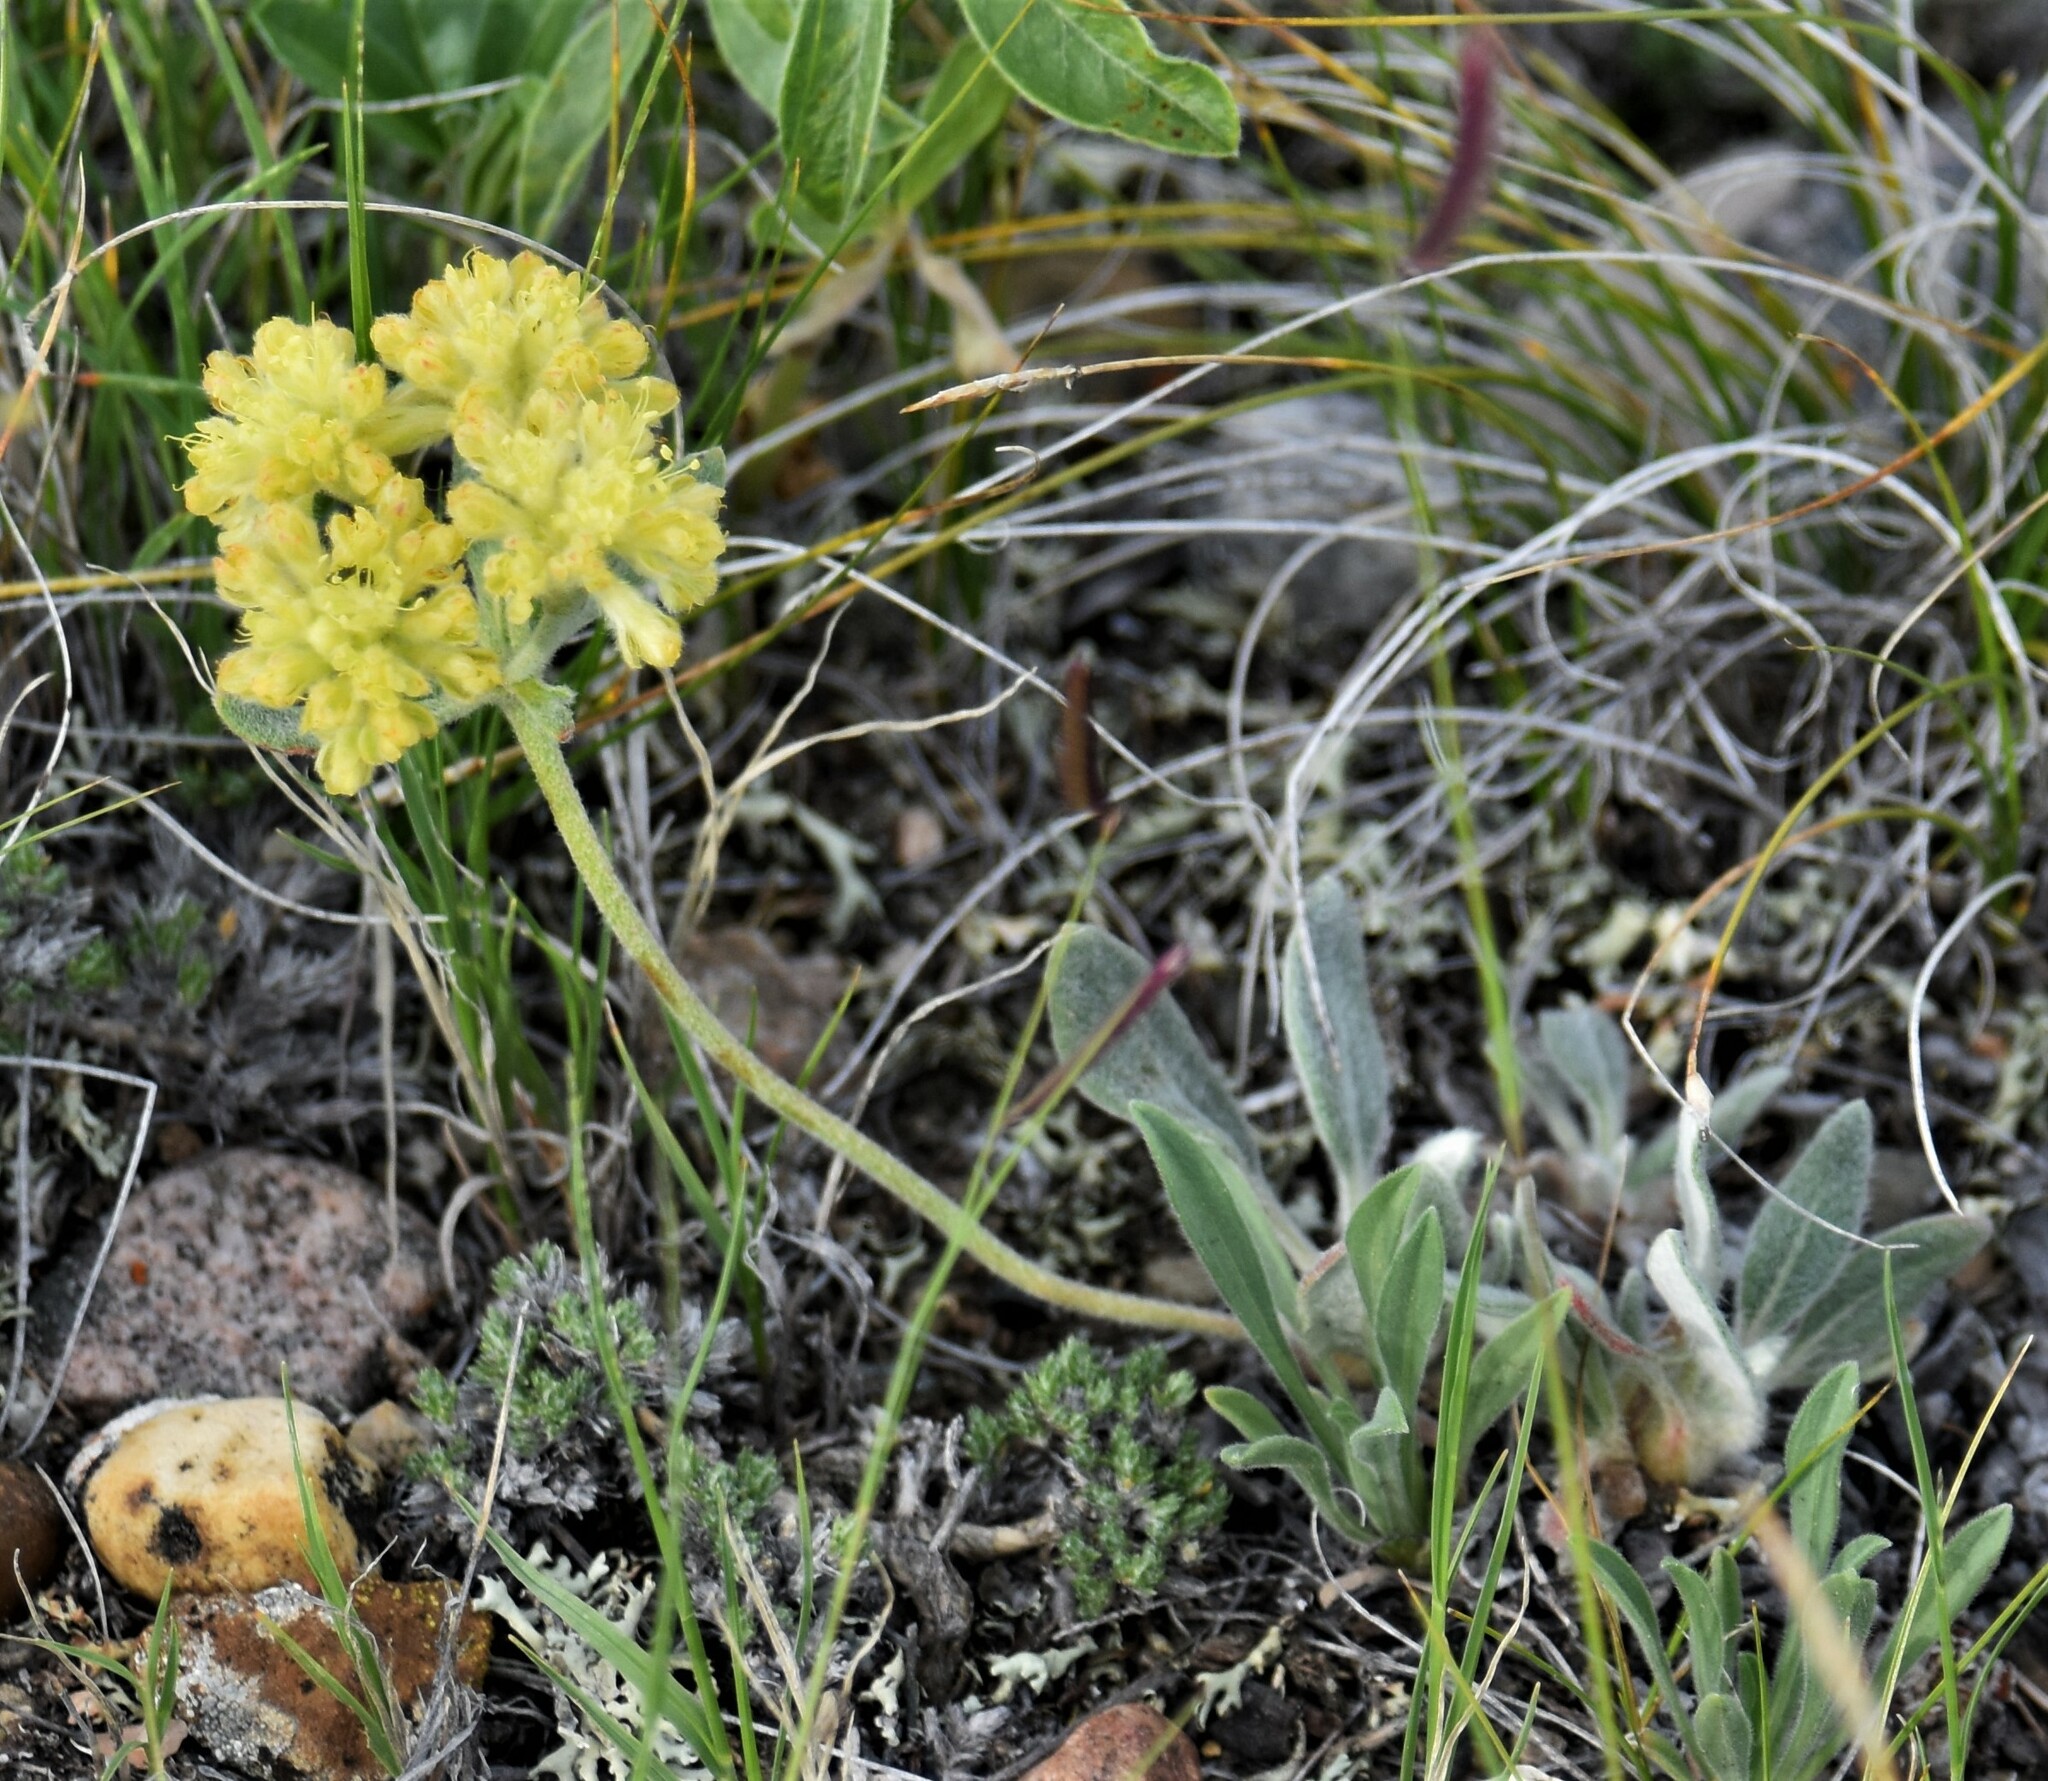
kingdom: Plantae
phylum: Tracheophyta
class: Magnoliopsida
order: Caryophyllales
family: Polygonaceae
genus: Eriogonum
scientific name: Eriogonum flavum
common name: Alpine golden wild buckwheat
